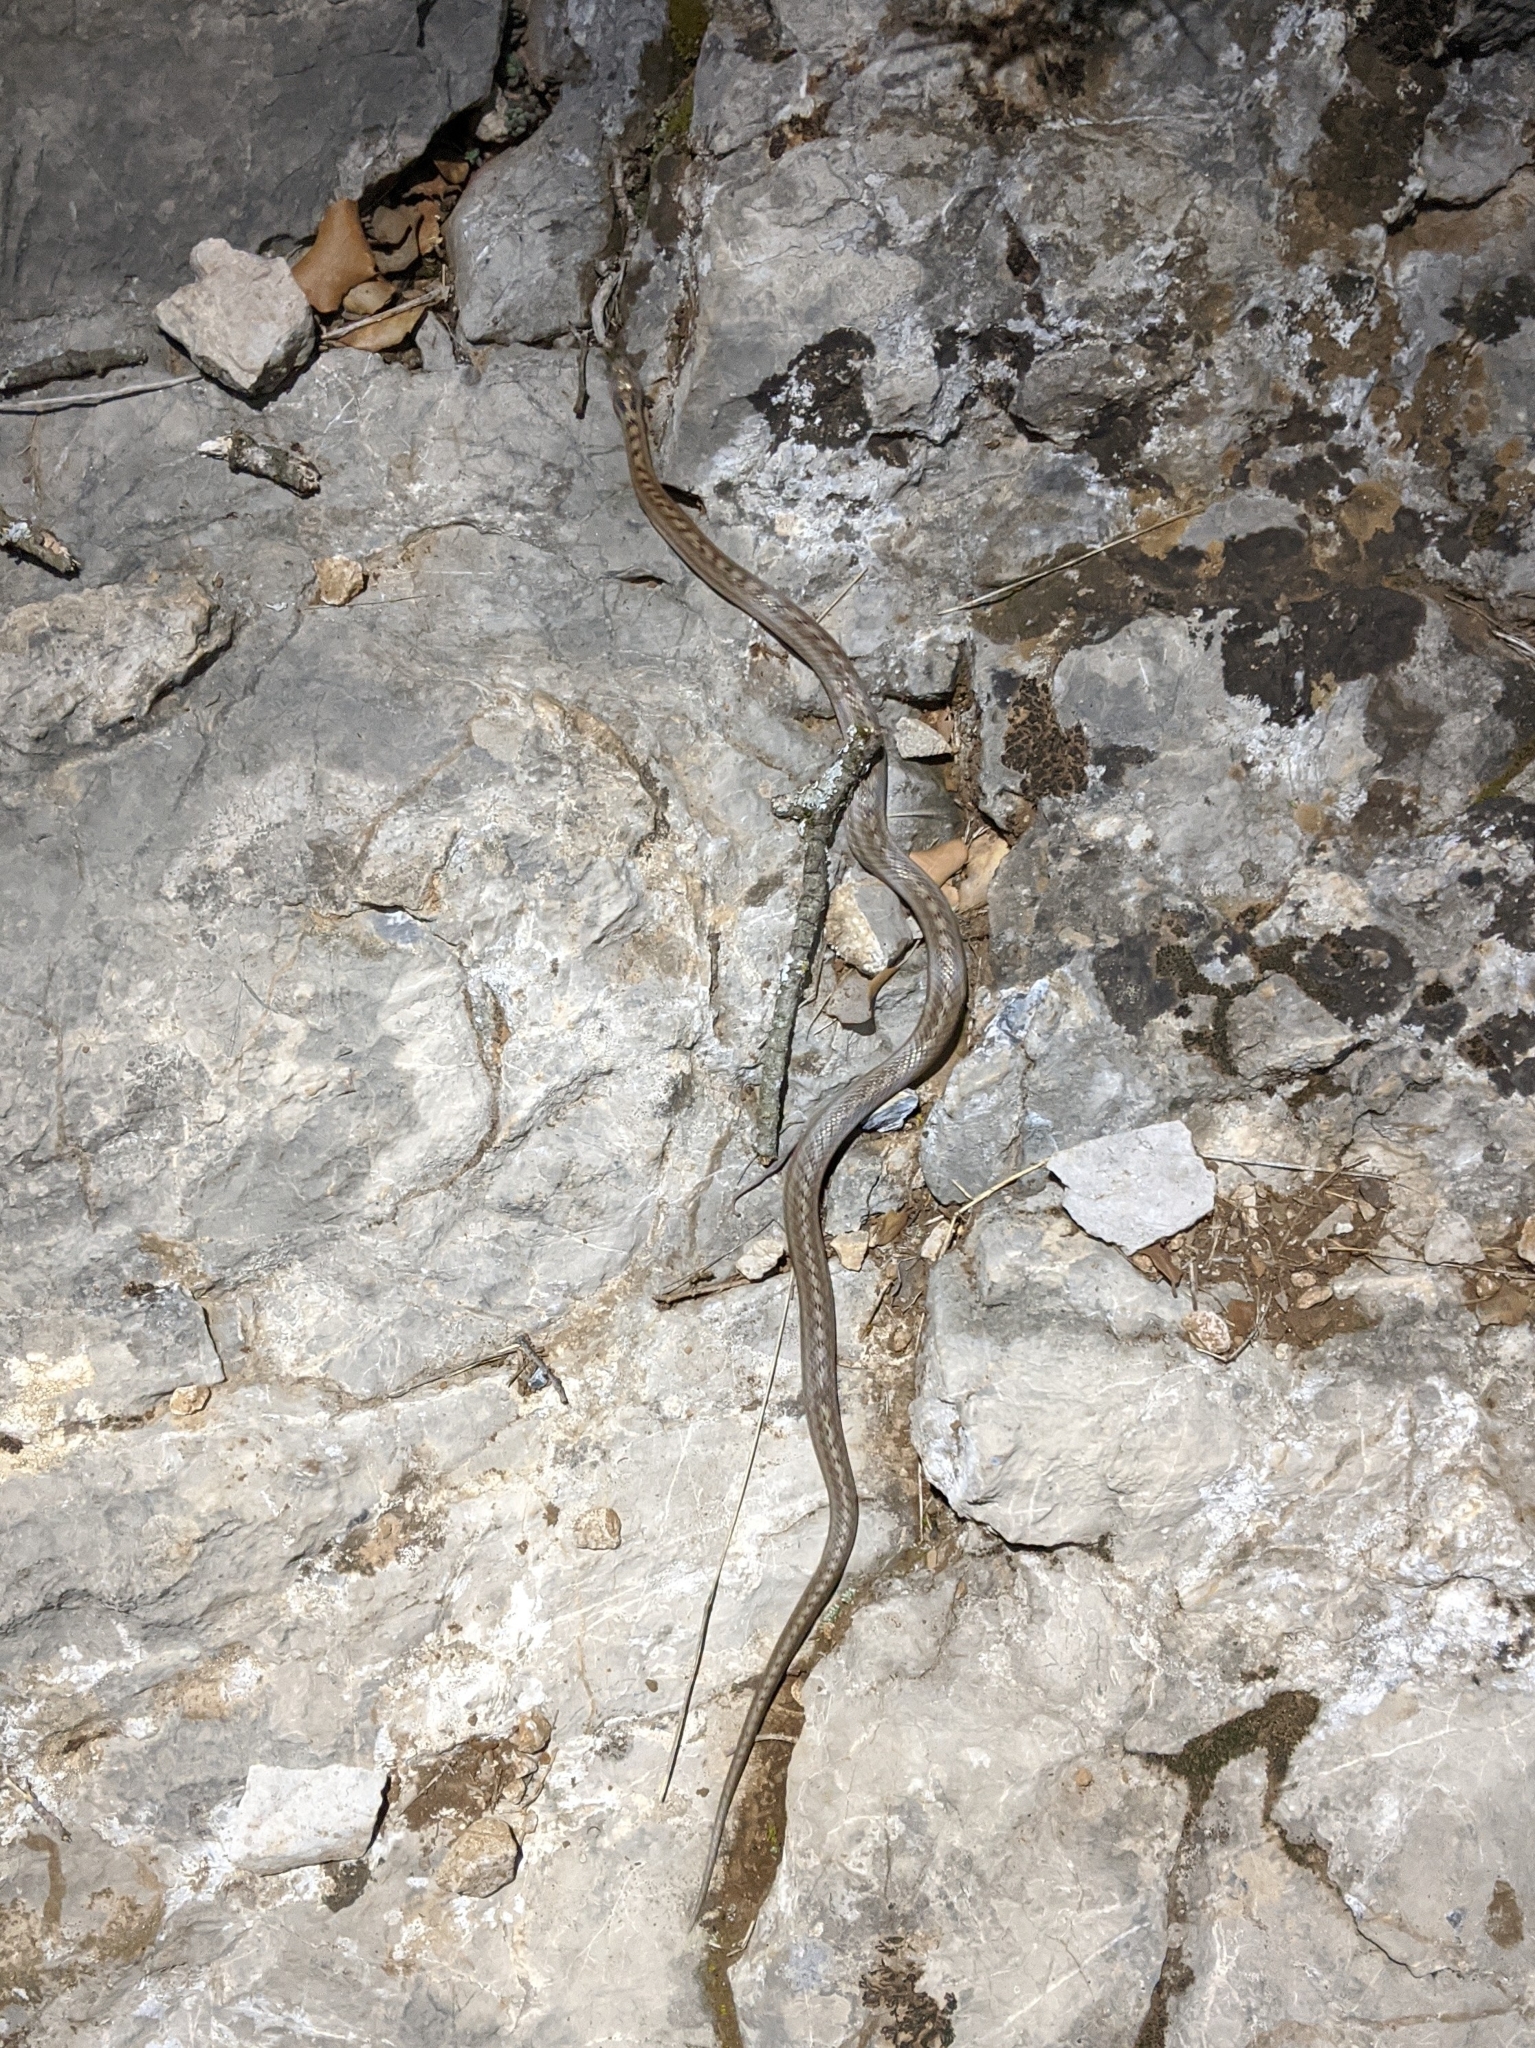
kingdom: Animalia
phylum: Chordata
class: Squamata
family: Colubridae
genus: Coronella
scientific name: Coronella girondica
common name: Southern smooth snake
